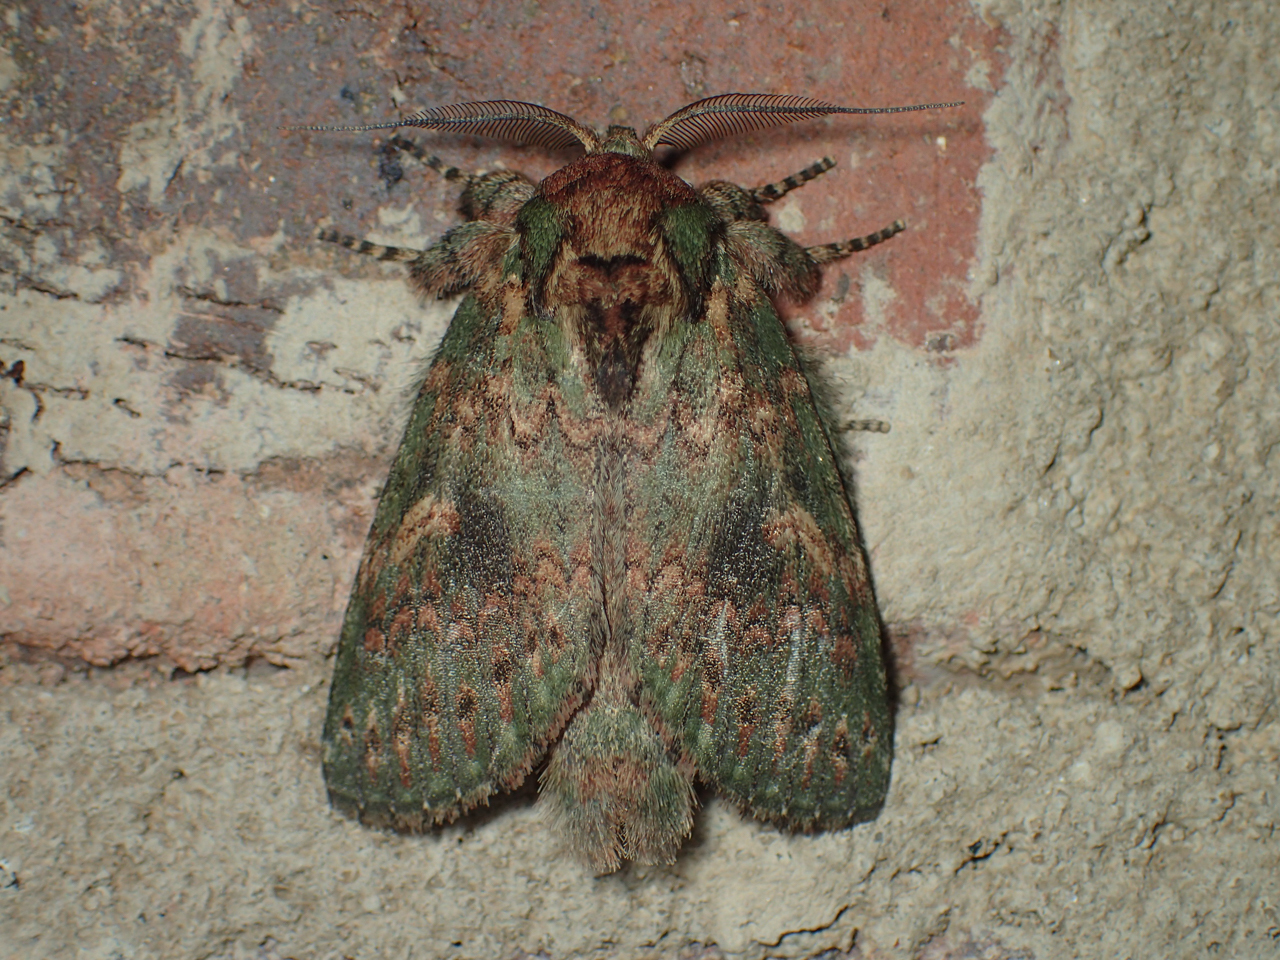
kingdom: Animalia
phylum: Arthropoda
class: Insecta
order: Lepidoptera
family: Notodontidae
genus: Disphragis
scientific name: Disphragis Cecrita biundata
